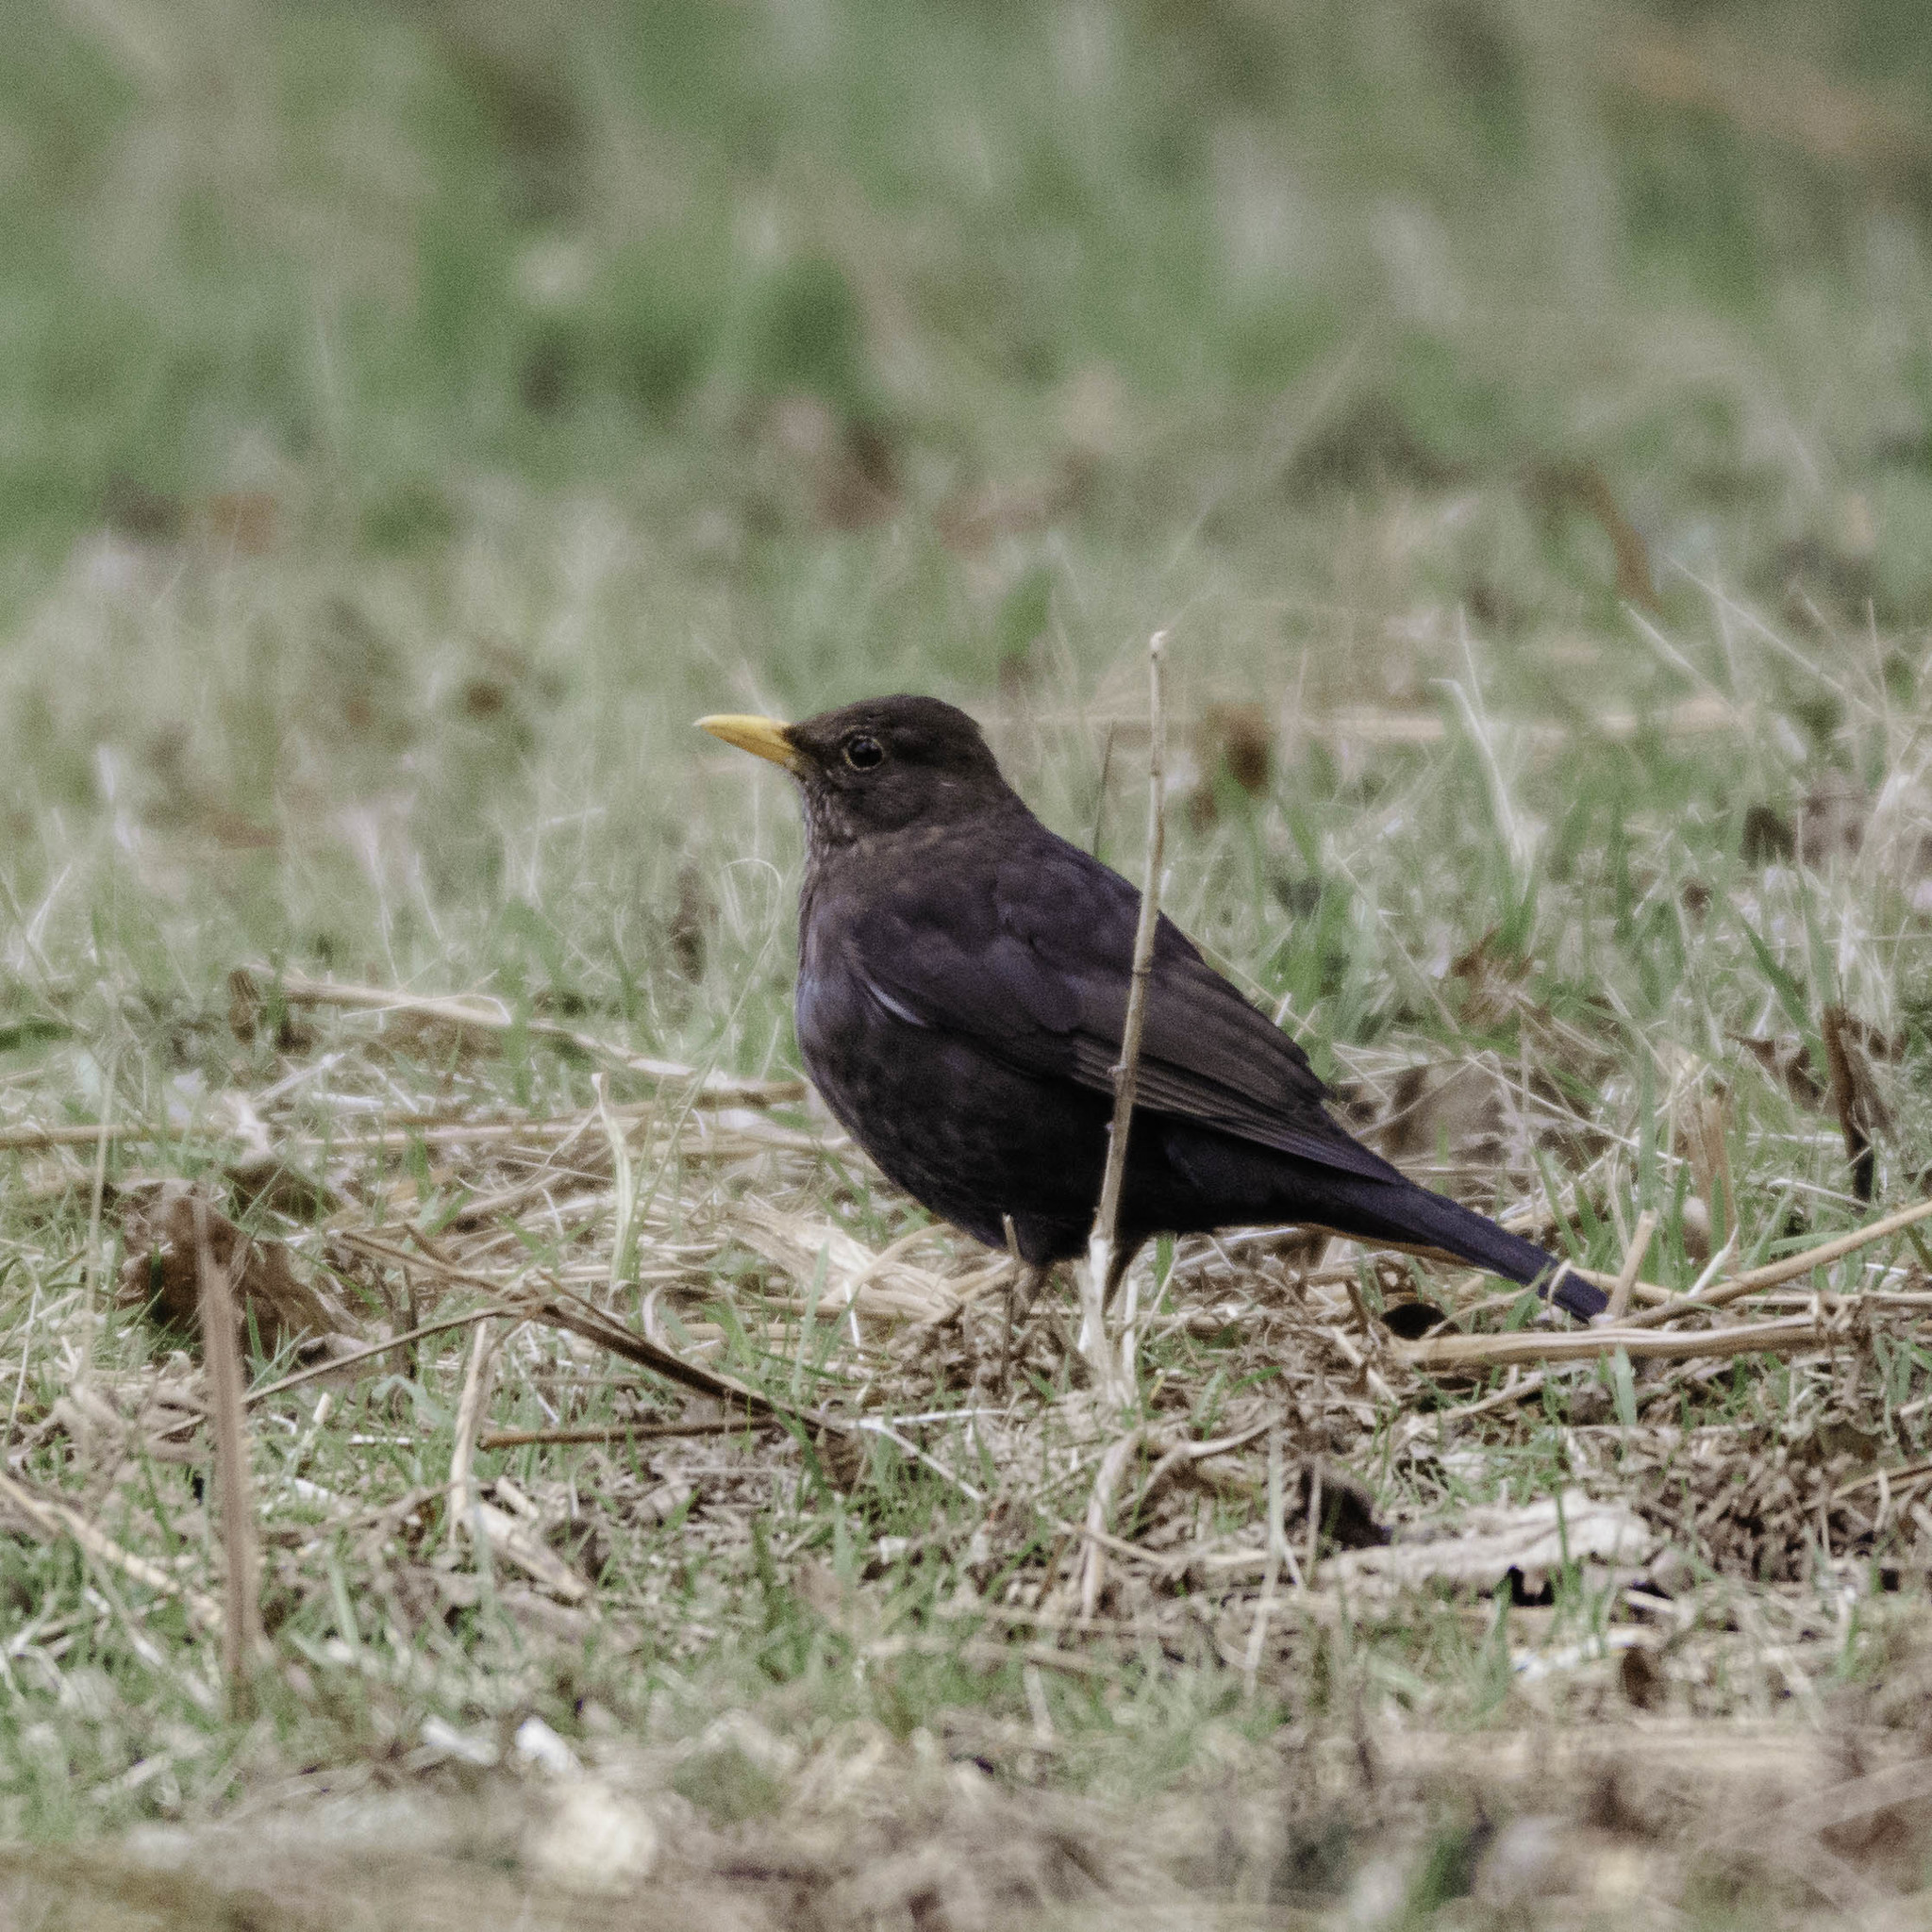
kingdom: Animalia
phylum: Chordata
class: Aves
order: Passeriformes
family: Turdidae
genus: Turdus
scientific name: Turdus merula
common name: Common blackbird
